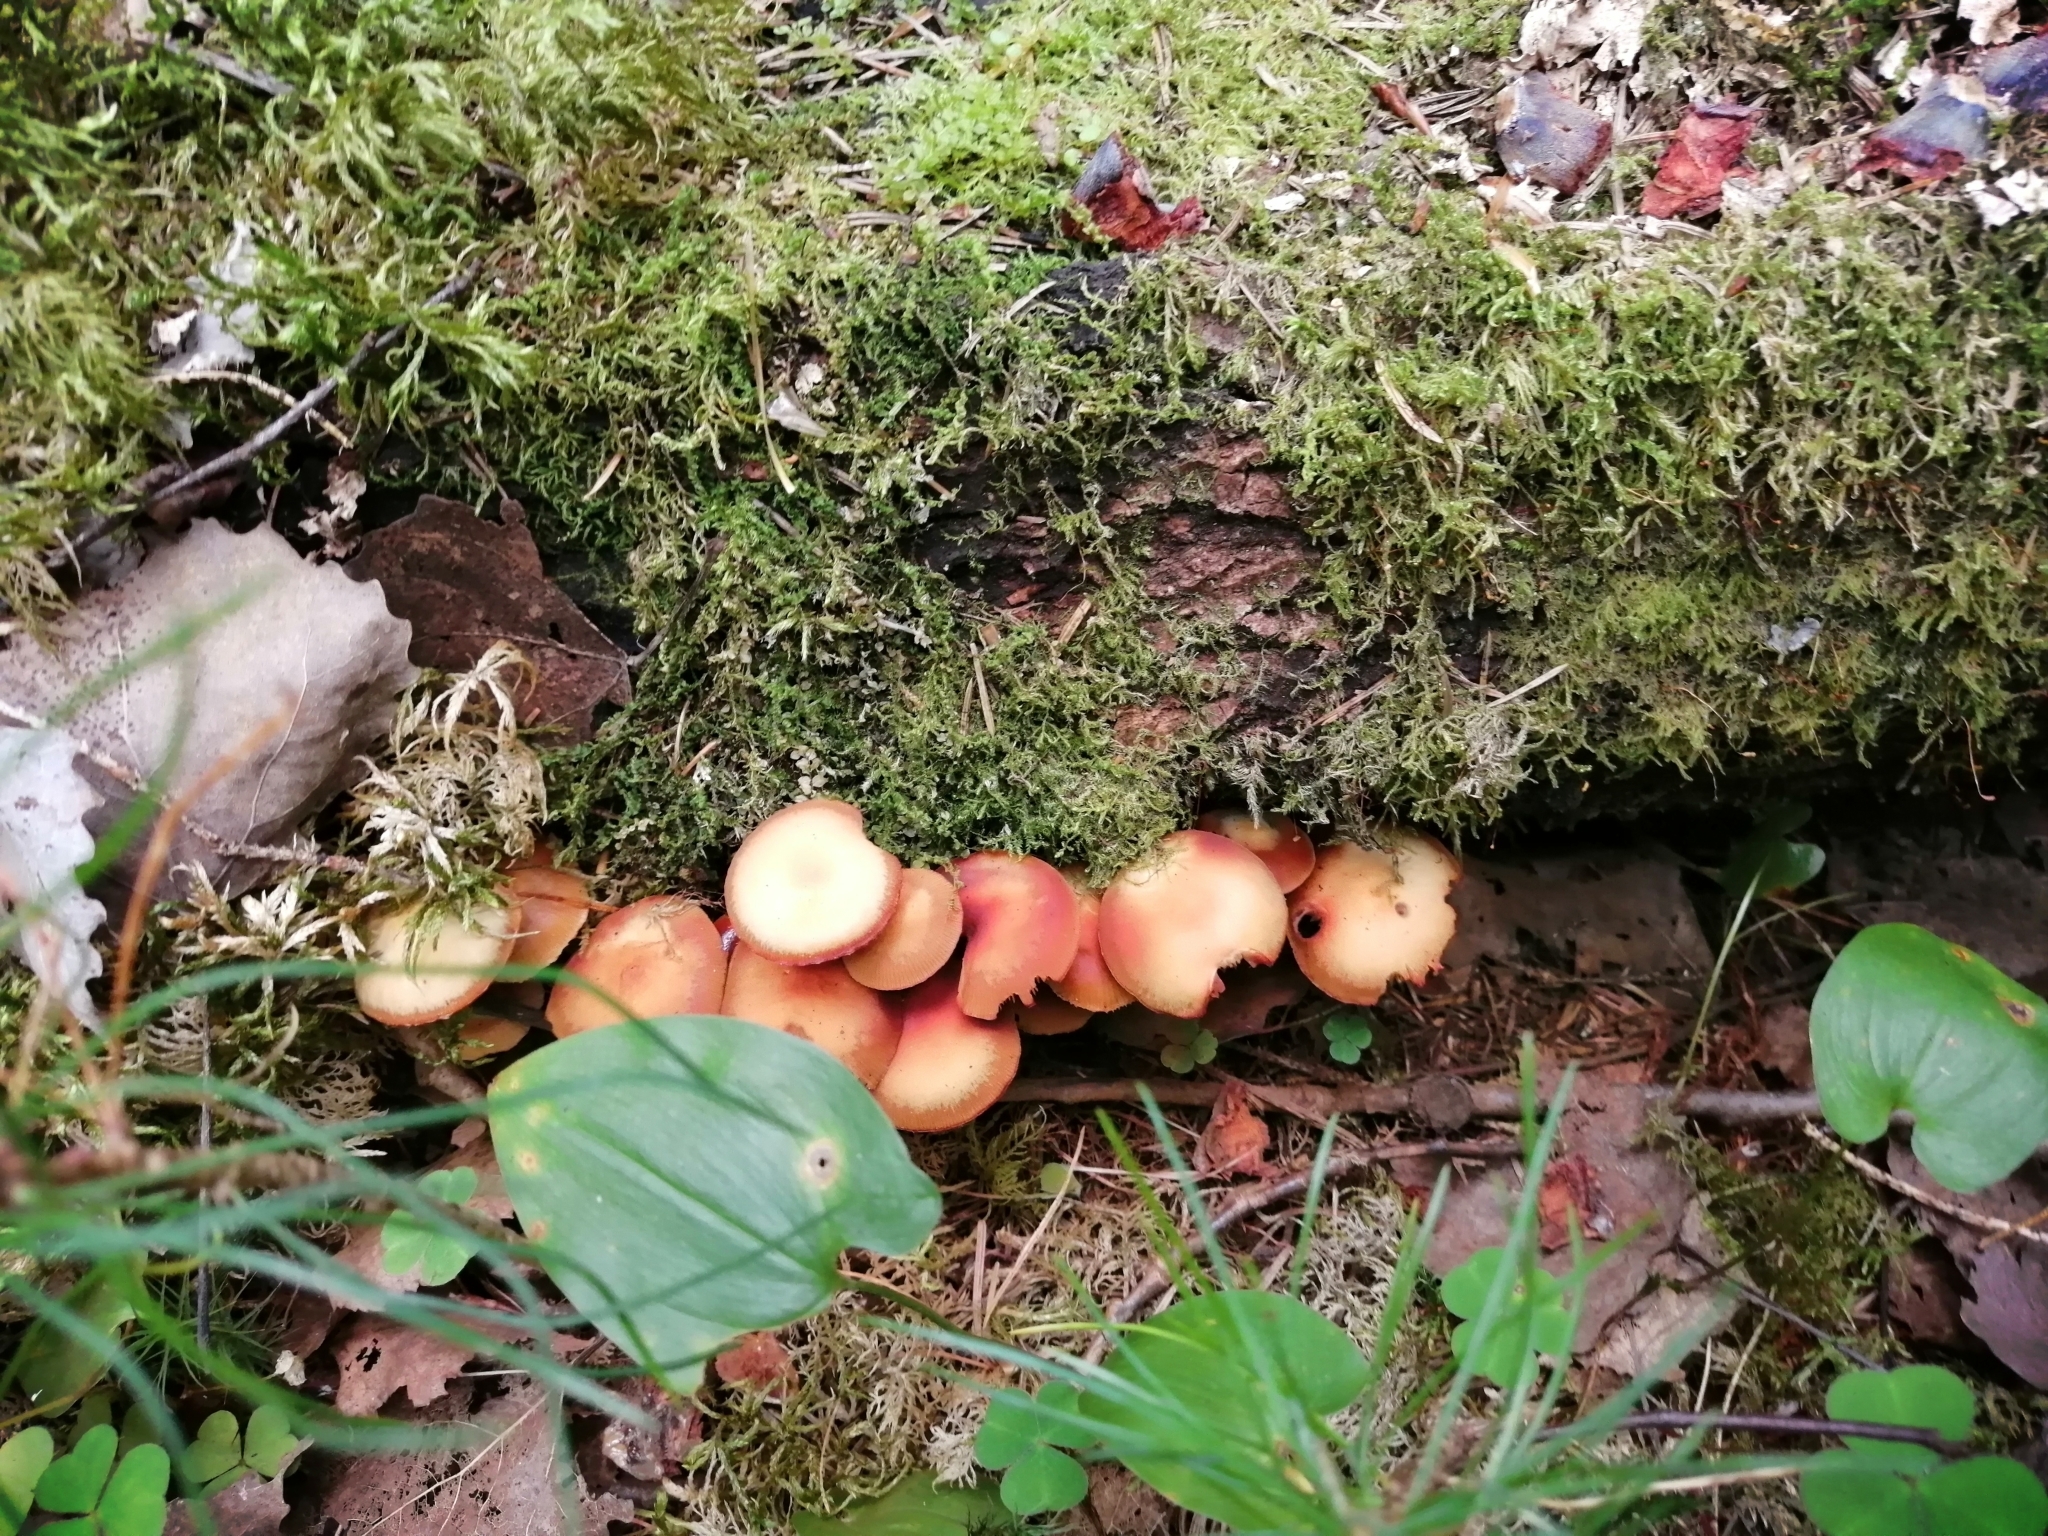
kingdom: Fungi
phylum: Basidiomycota
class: Agaricomycetes
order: Agaricales
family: Strophariaceae
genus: Kuehneromyces
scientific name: Kuehneromyces mutabilis
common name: Sheathed woodtuft
